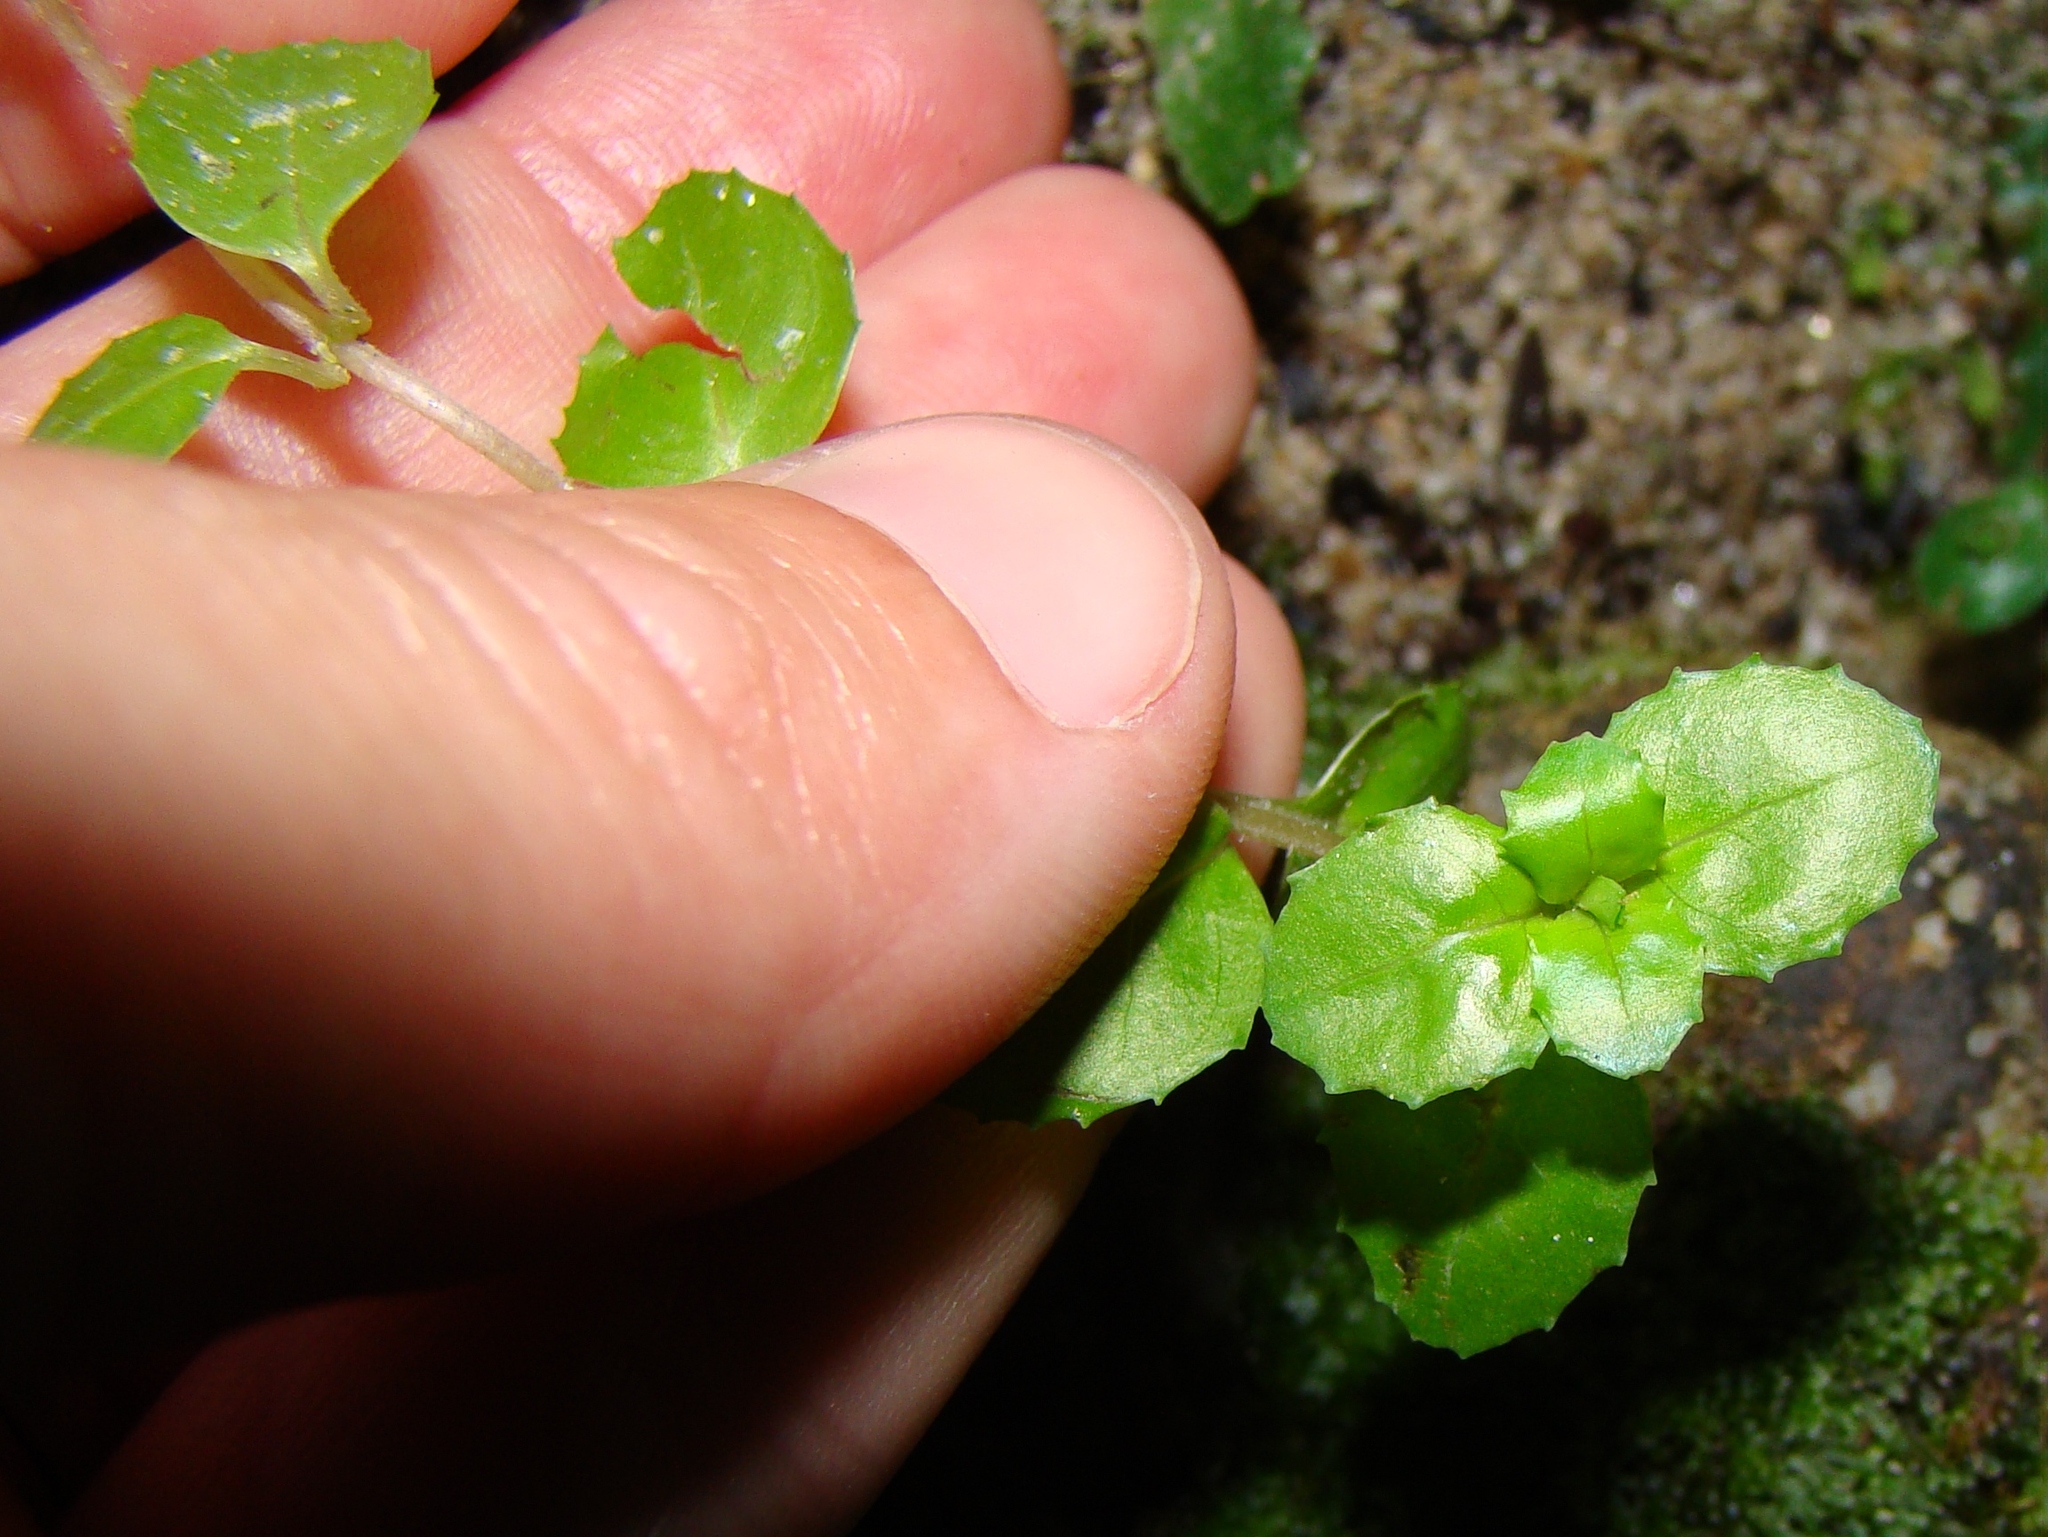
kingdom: Plantae
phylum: Tracheophyta
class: Magnoliopsida
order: Myrtales
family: Onagraceae
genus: Epilobium
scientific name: Epilobium pedunculare
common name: Rockery willowherb
